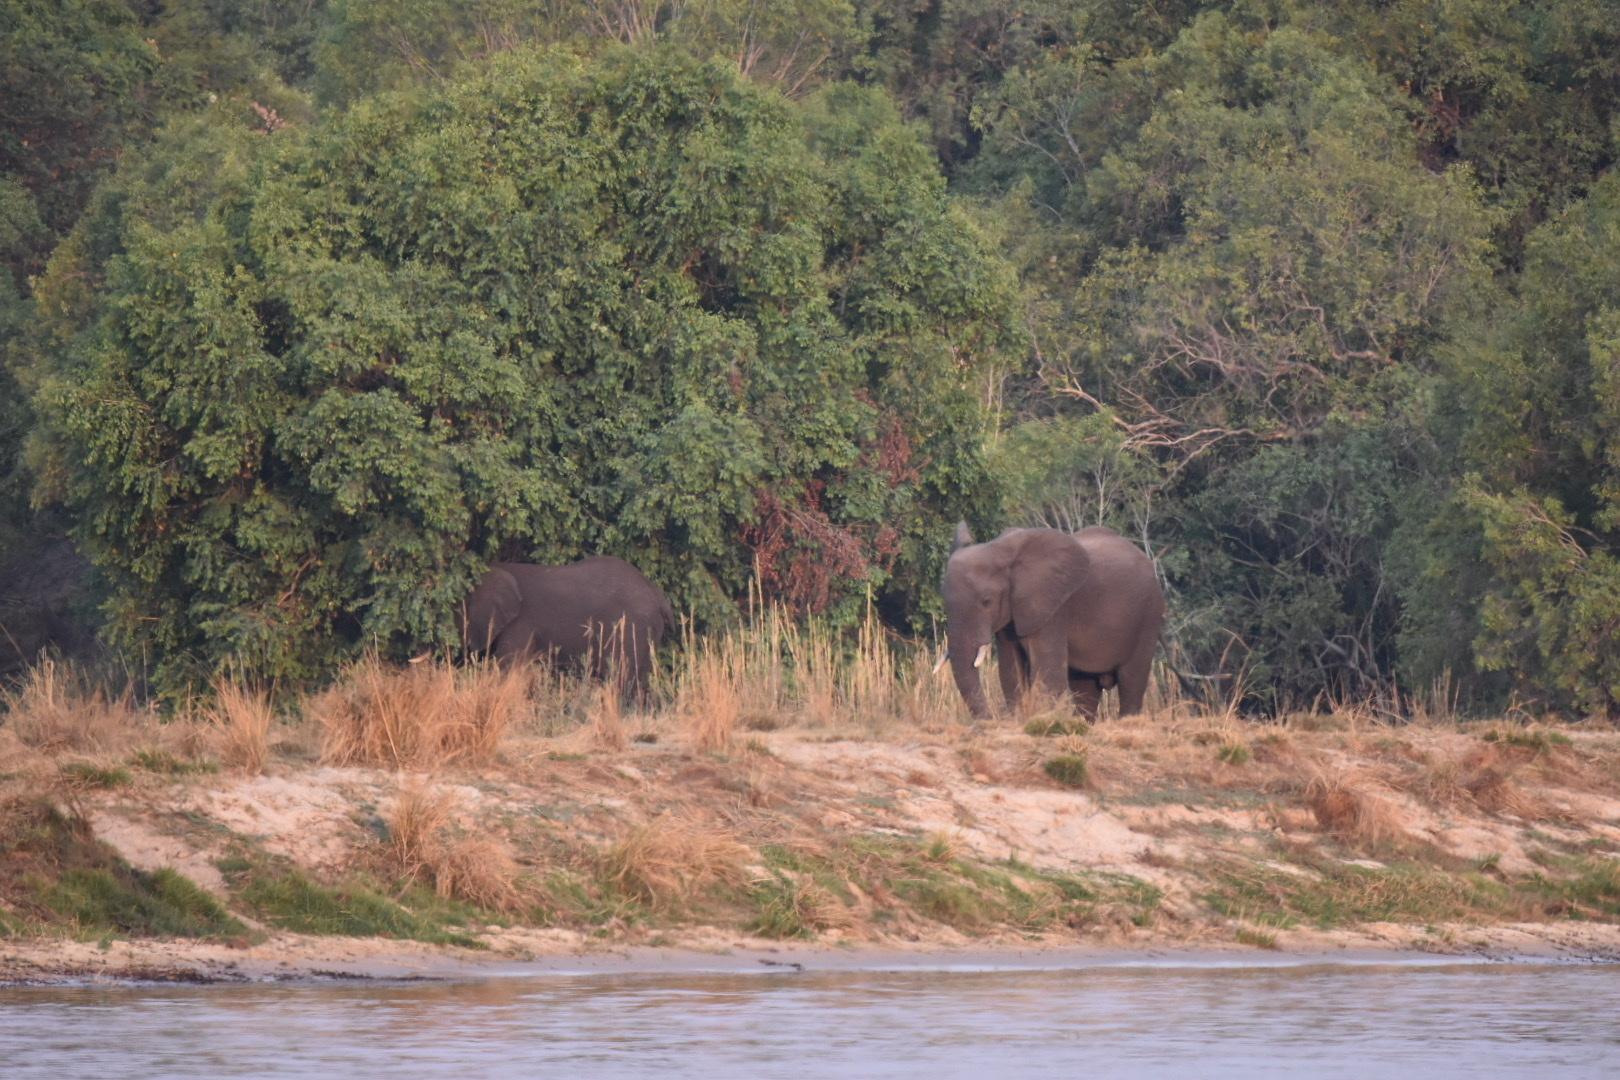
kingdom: Animalia
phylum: Chordata
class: Mammalia
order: Proboscidea
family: Elephantidae
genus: Loxodonta
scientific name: Loxodonta africana
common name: African elephant
